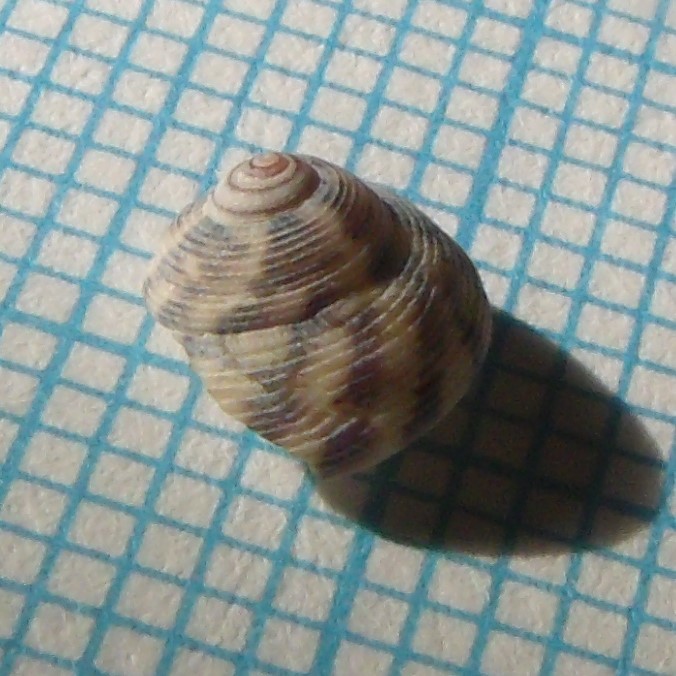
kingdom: Animalia
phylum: Mollusca
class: Gastropoda
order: Trochida
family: Trochidae
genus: Coelotrochus
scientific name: Coelotrochus chathamensis
